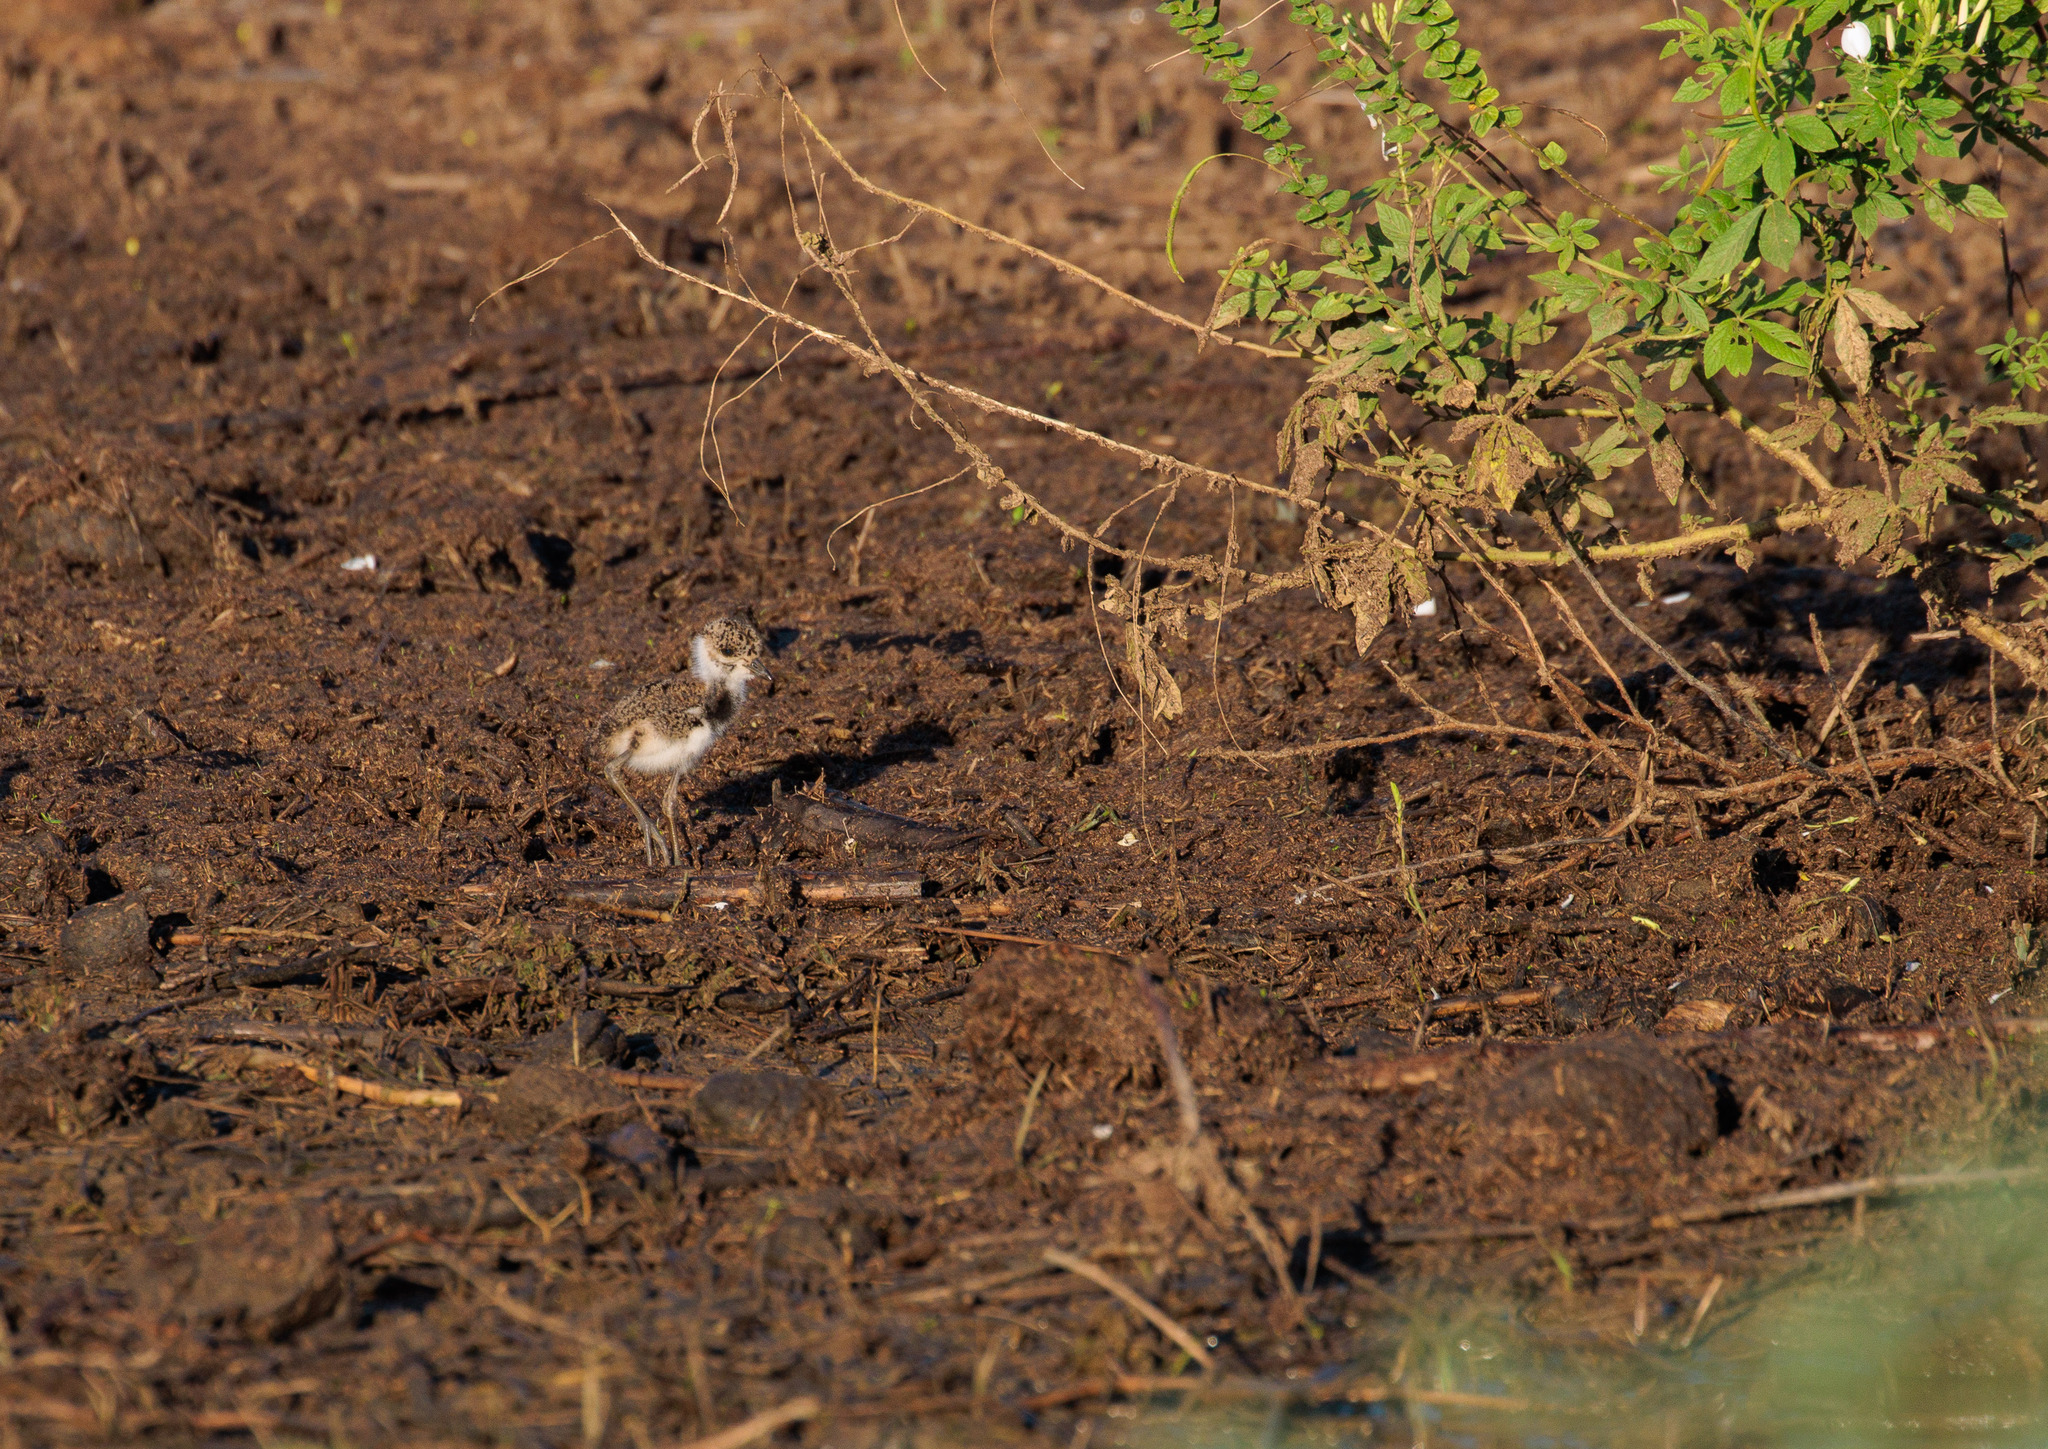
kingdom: Animalia
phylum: Chordata
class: Aves
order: Charadriiformes
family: Charadriidae
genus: Vanellus
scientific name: Vanellus chilensis
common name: Southern lapwing
